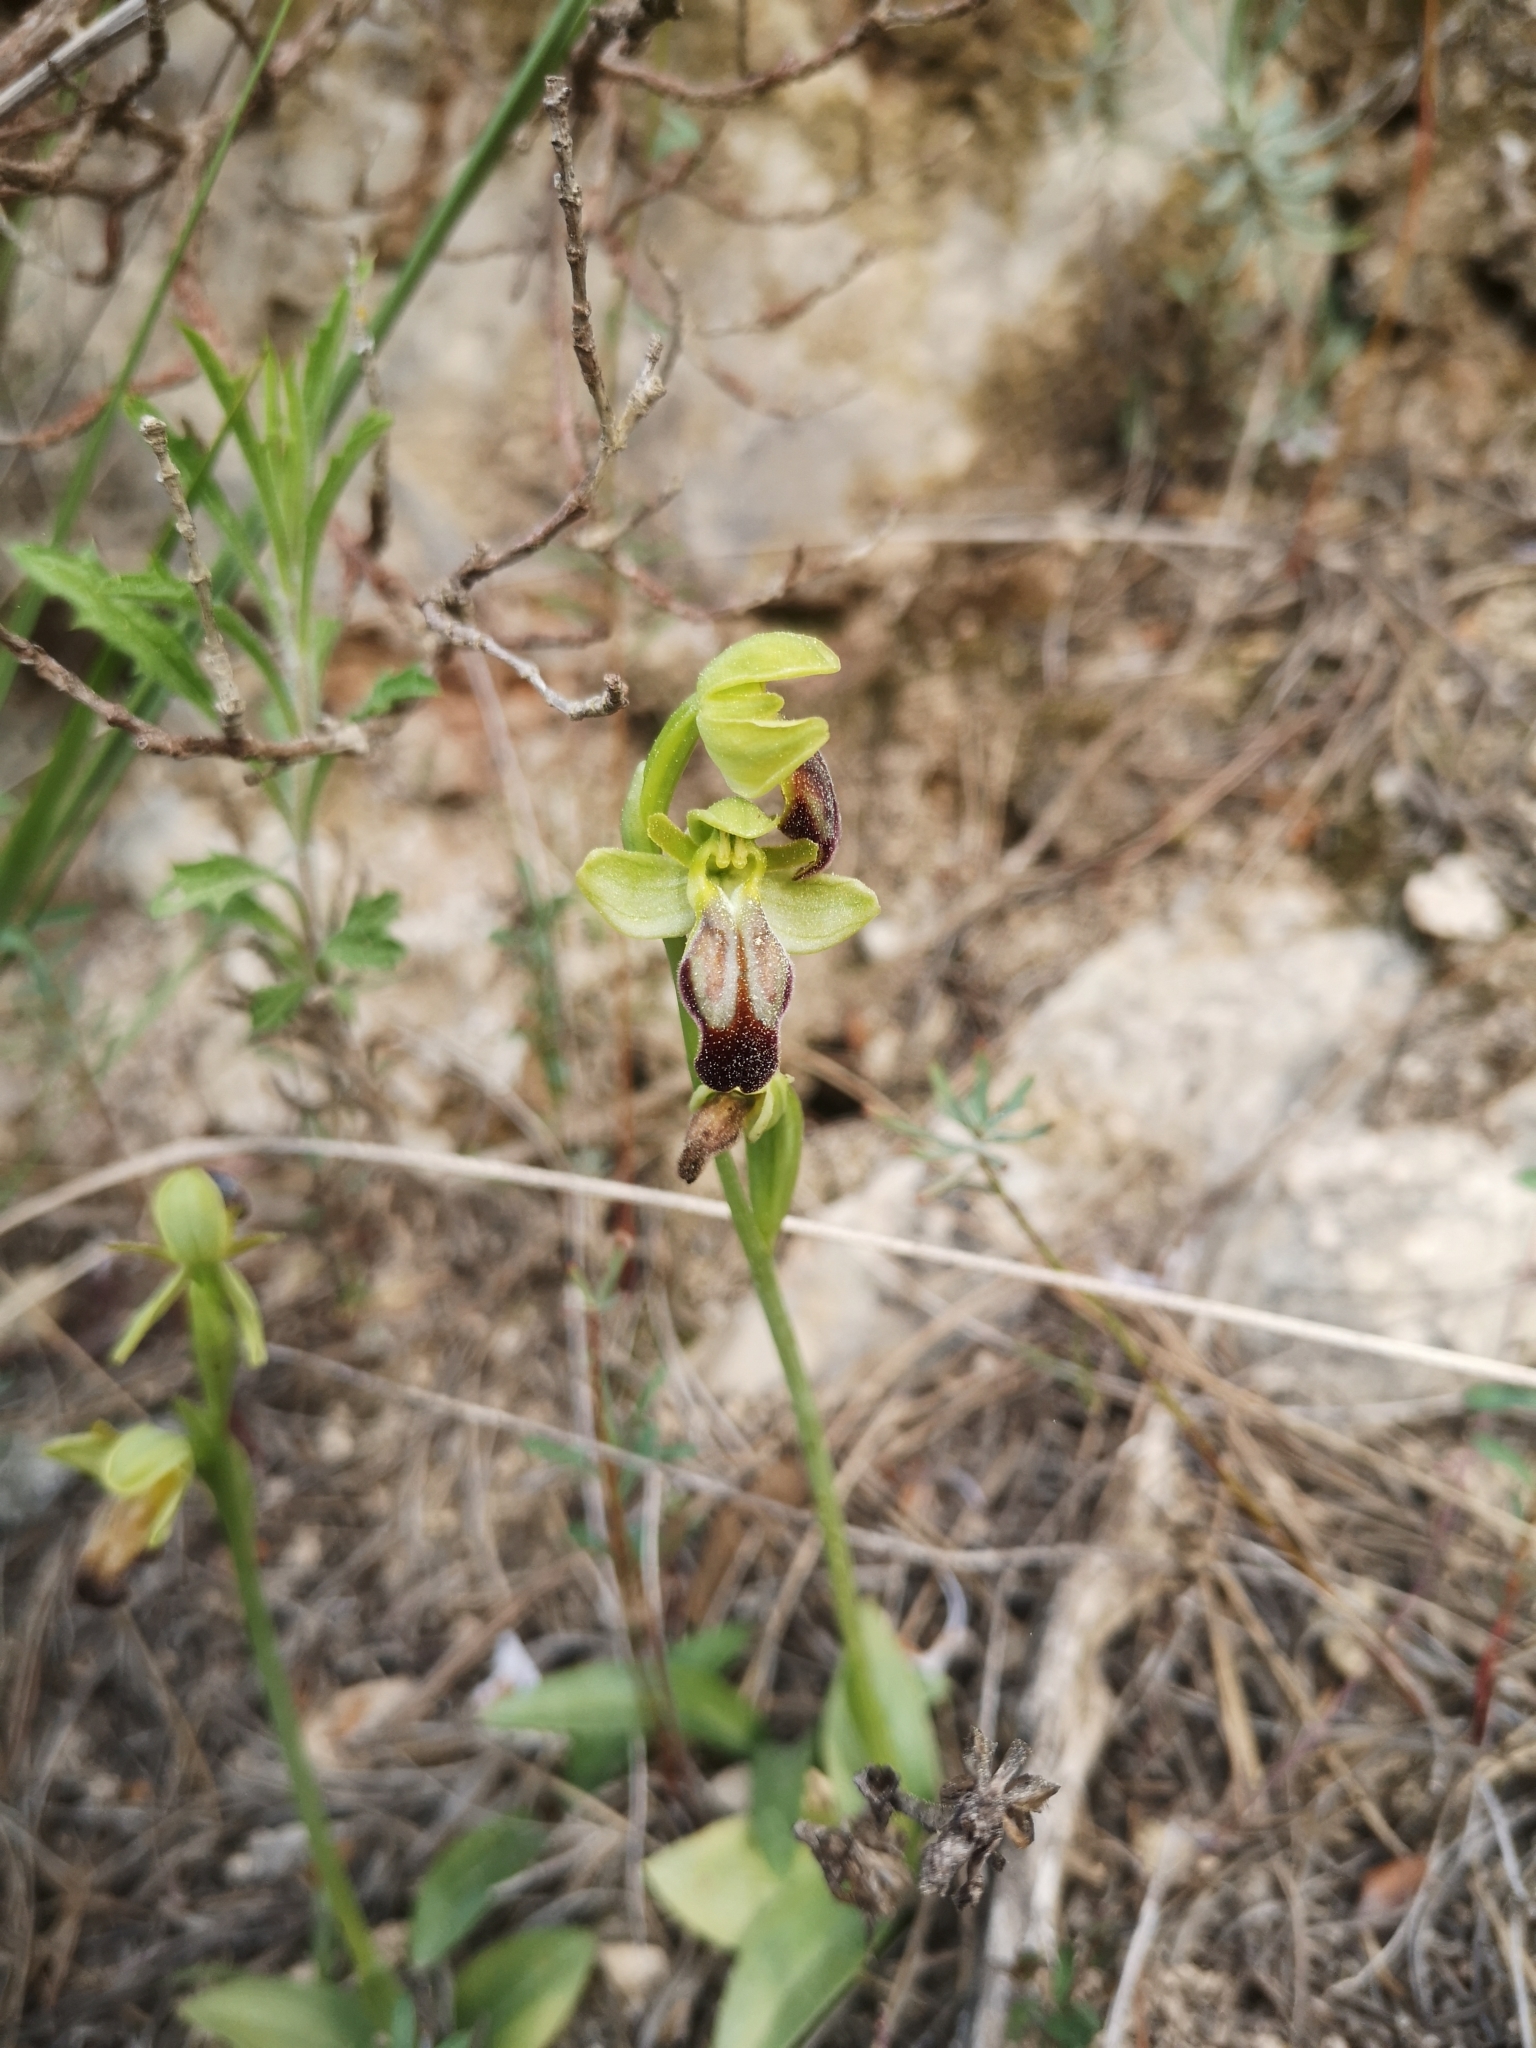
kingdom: Plantae
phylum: Tracheophyta
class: Liliopsida
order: Asparagales
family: Orchidaceae
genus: Ophrys
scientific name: Ophrys fusca
